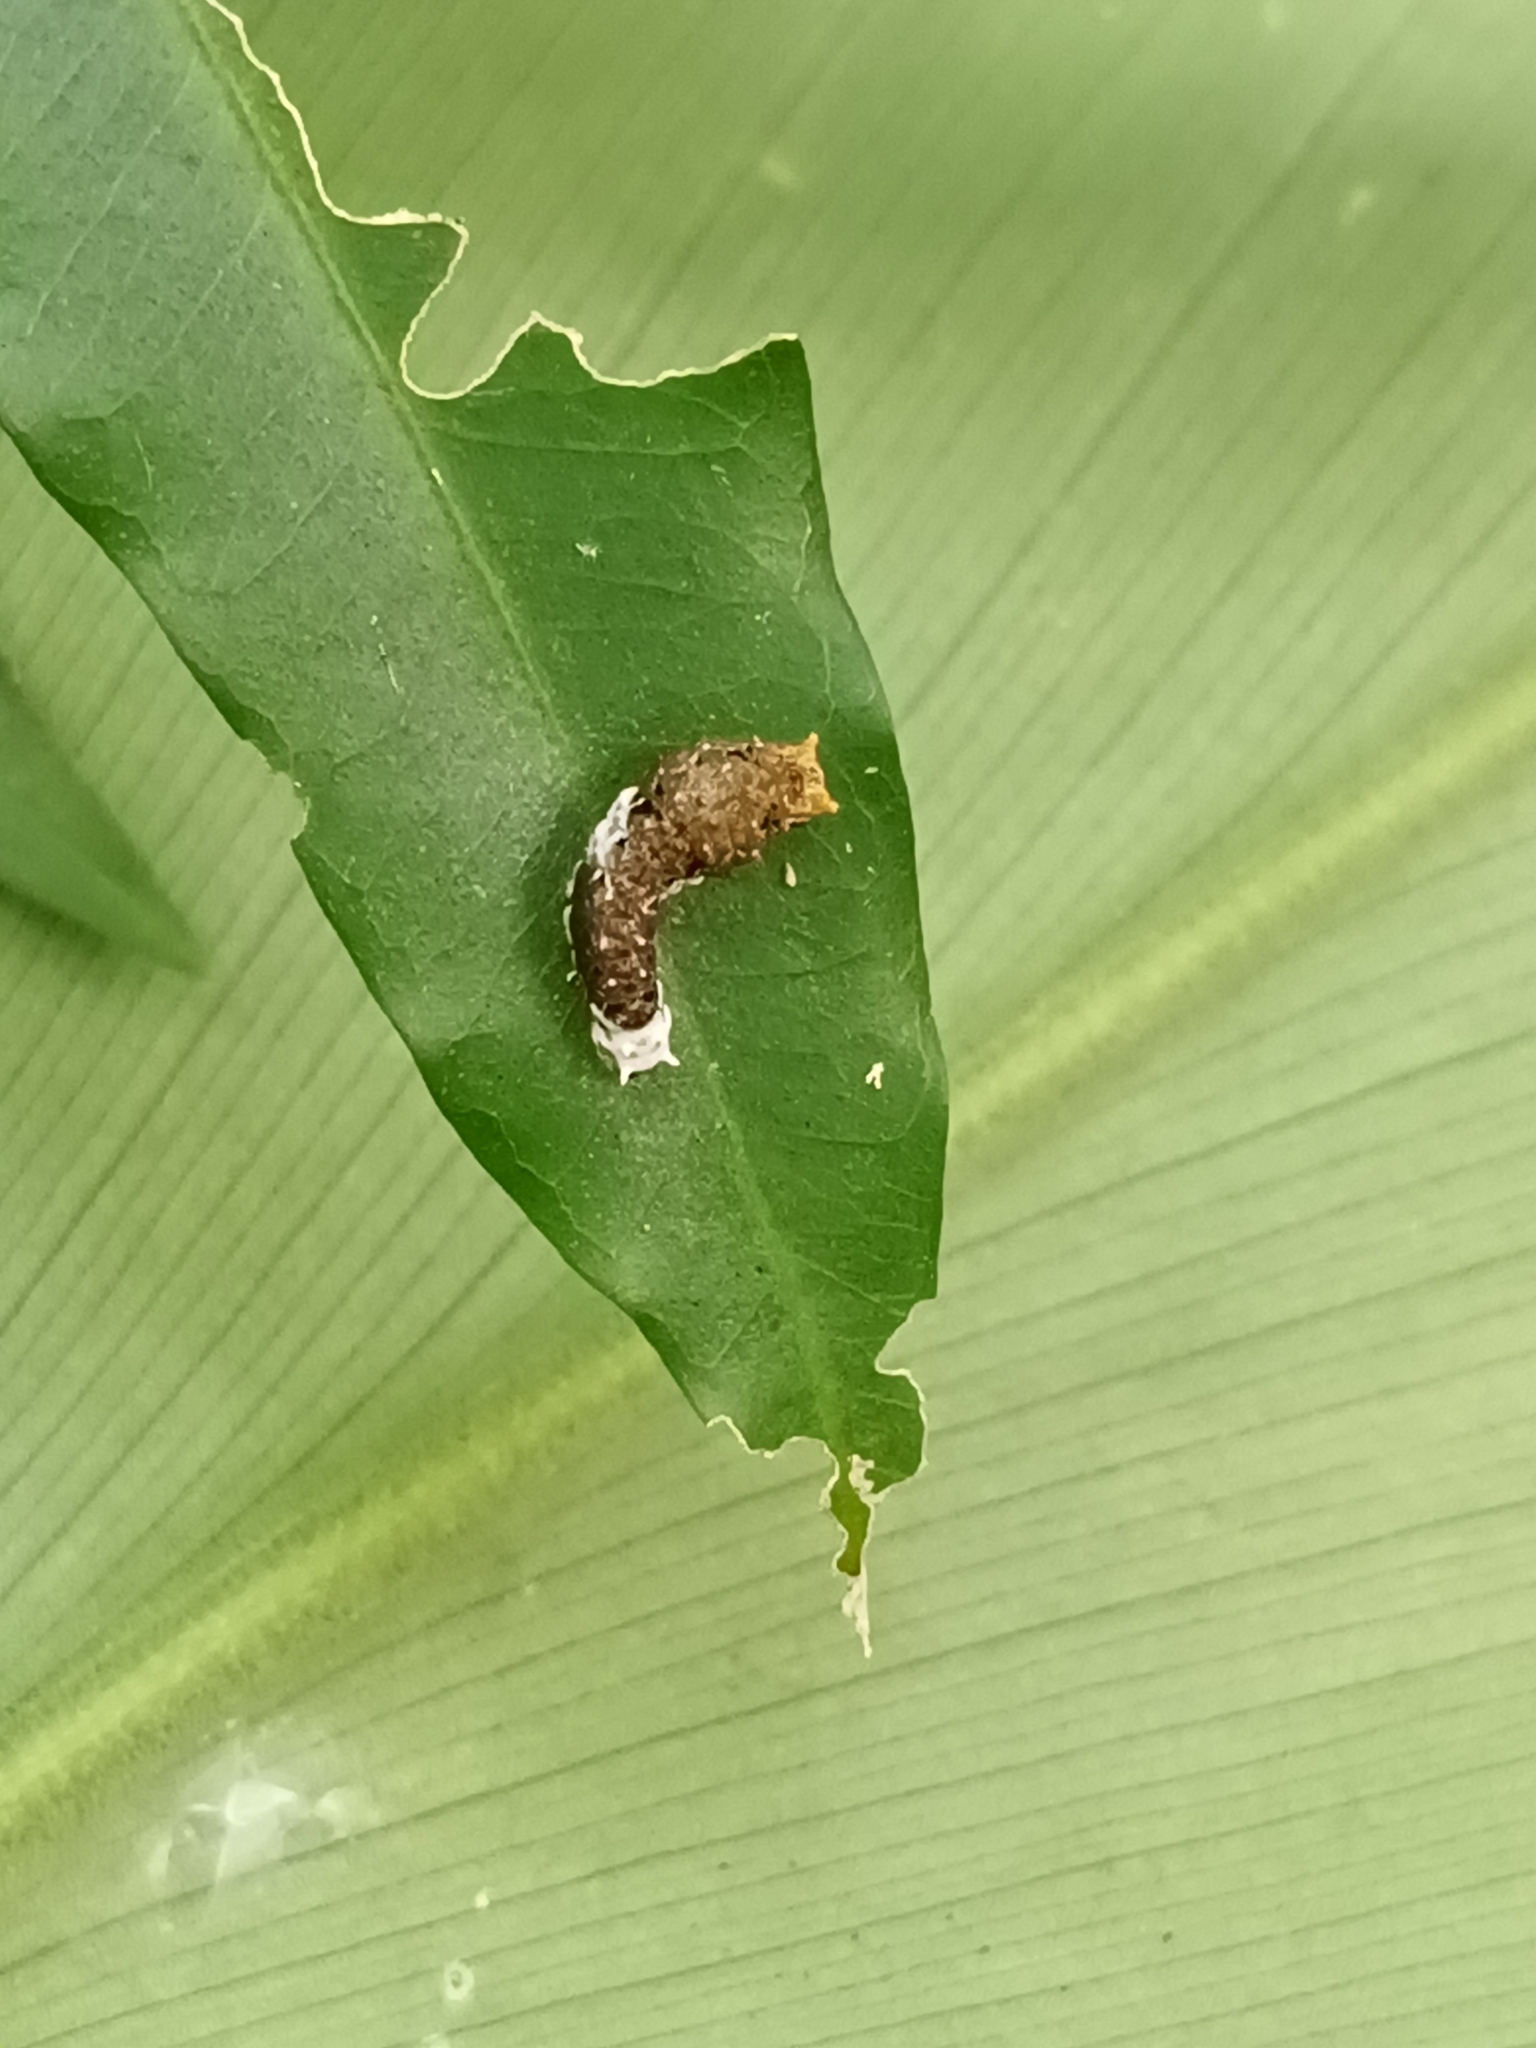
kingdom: Animalia
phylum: Arthropoda
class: Insecta
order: Lepidoptera
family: Papilionidae
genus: Papilio
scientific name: Papilio ophidicephalus
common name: Emperor swallowtail
